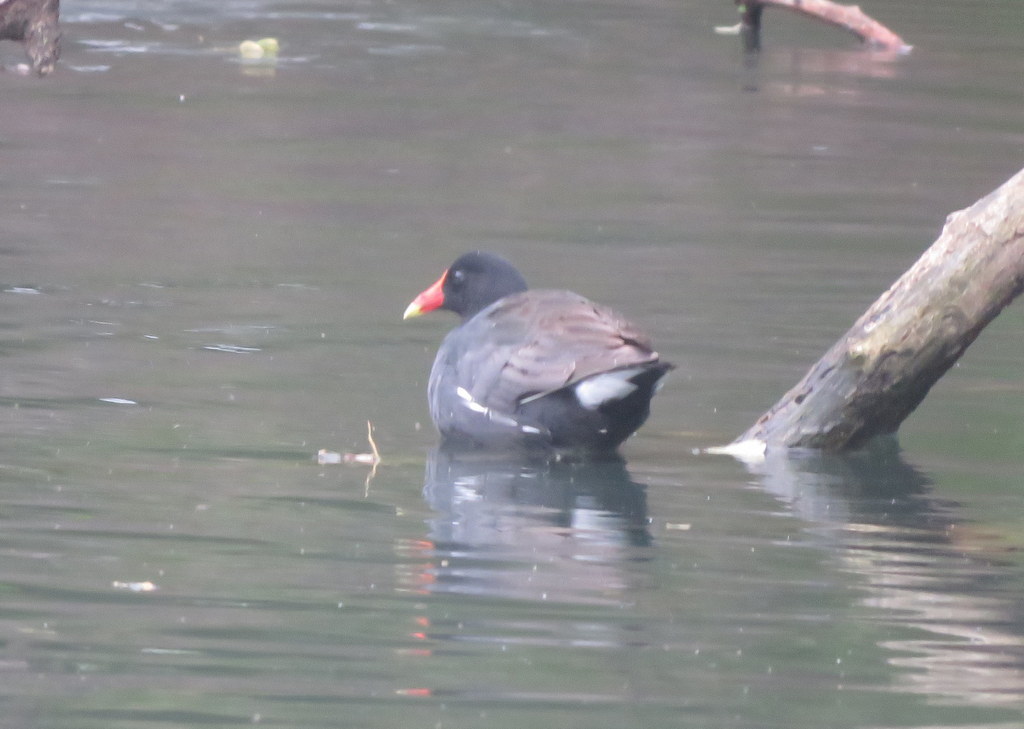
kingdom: Animalia
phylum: Chordata
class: Aves
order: Gruiformes
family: Rallidae
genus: Gallinula
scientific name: Gallinula chloropus
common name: Common moorhen
